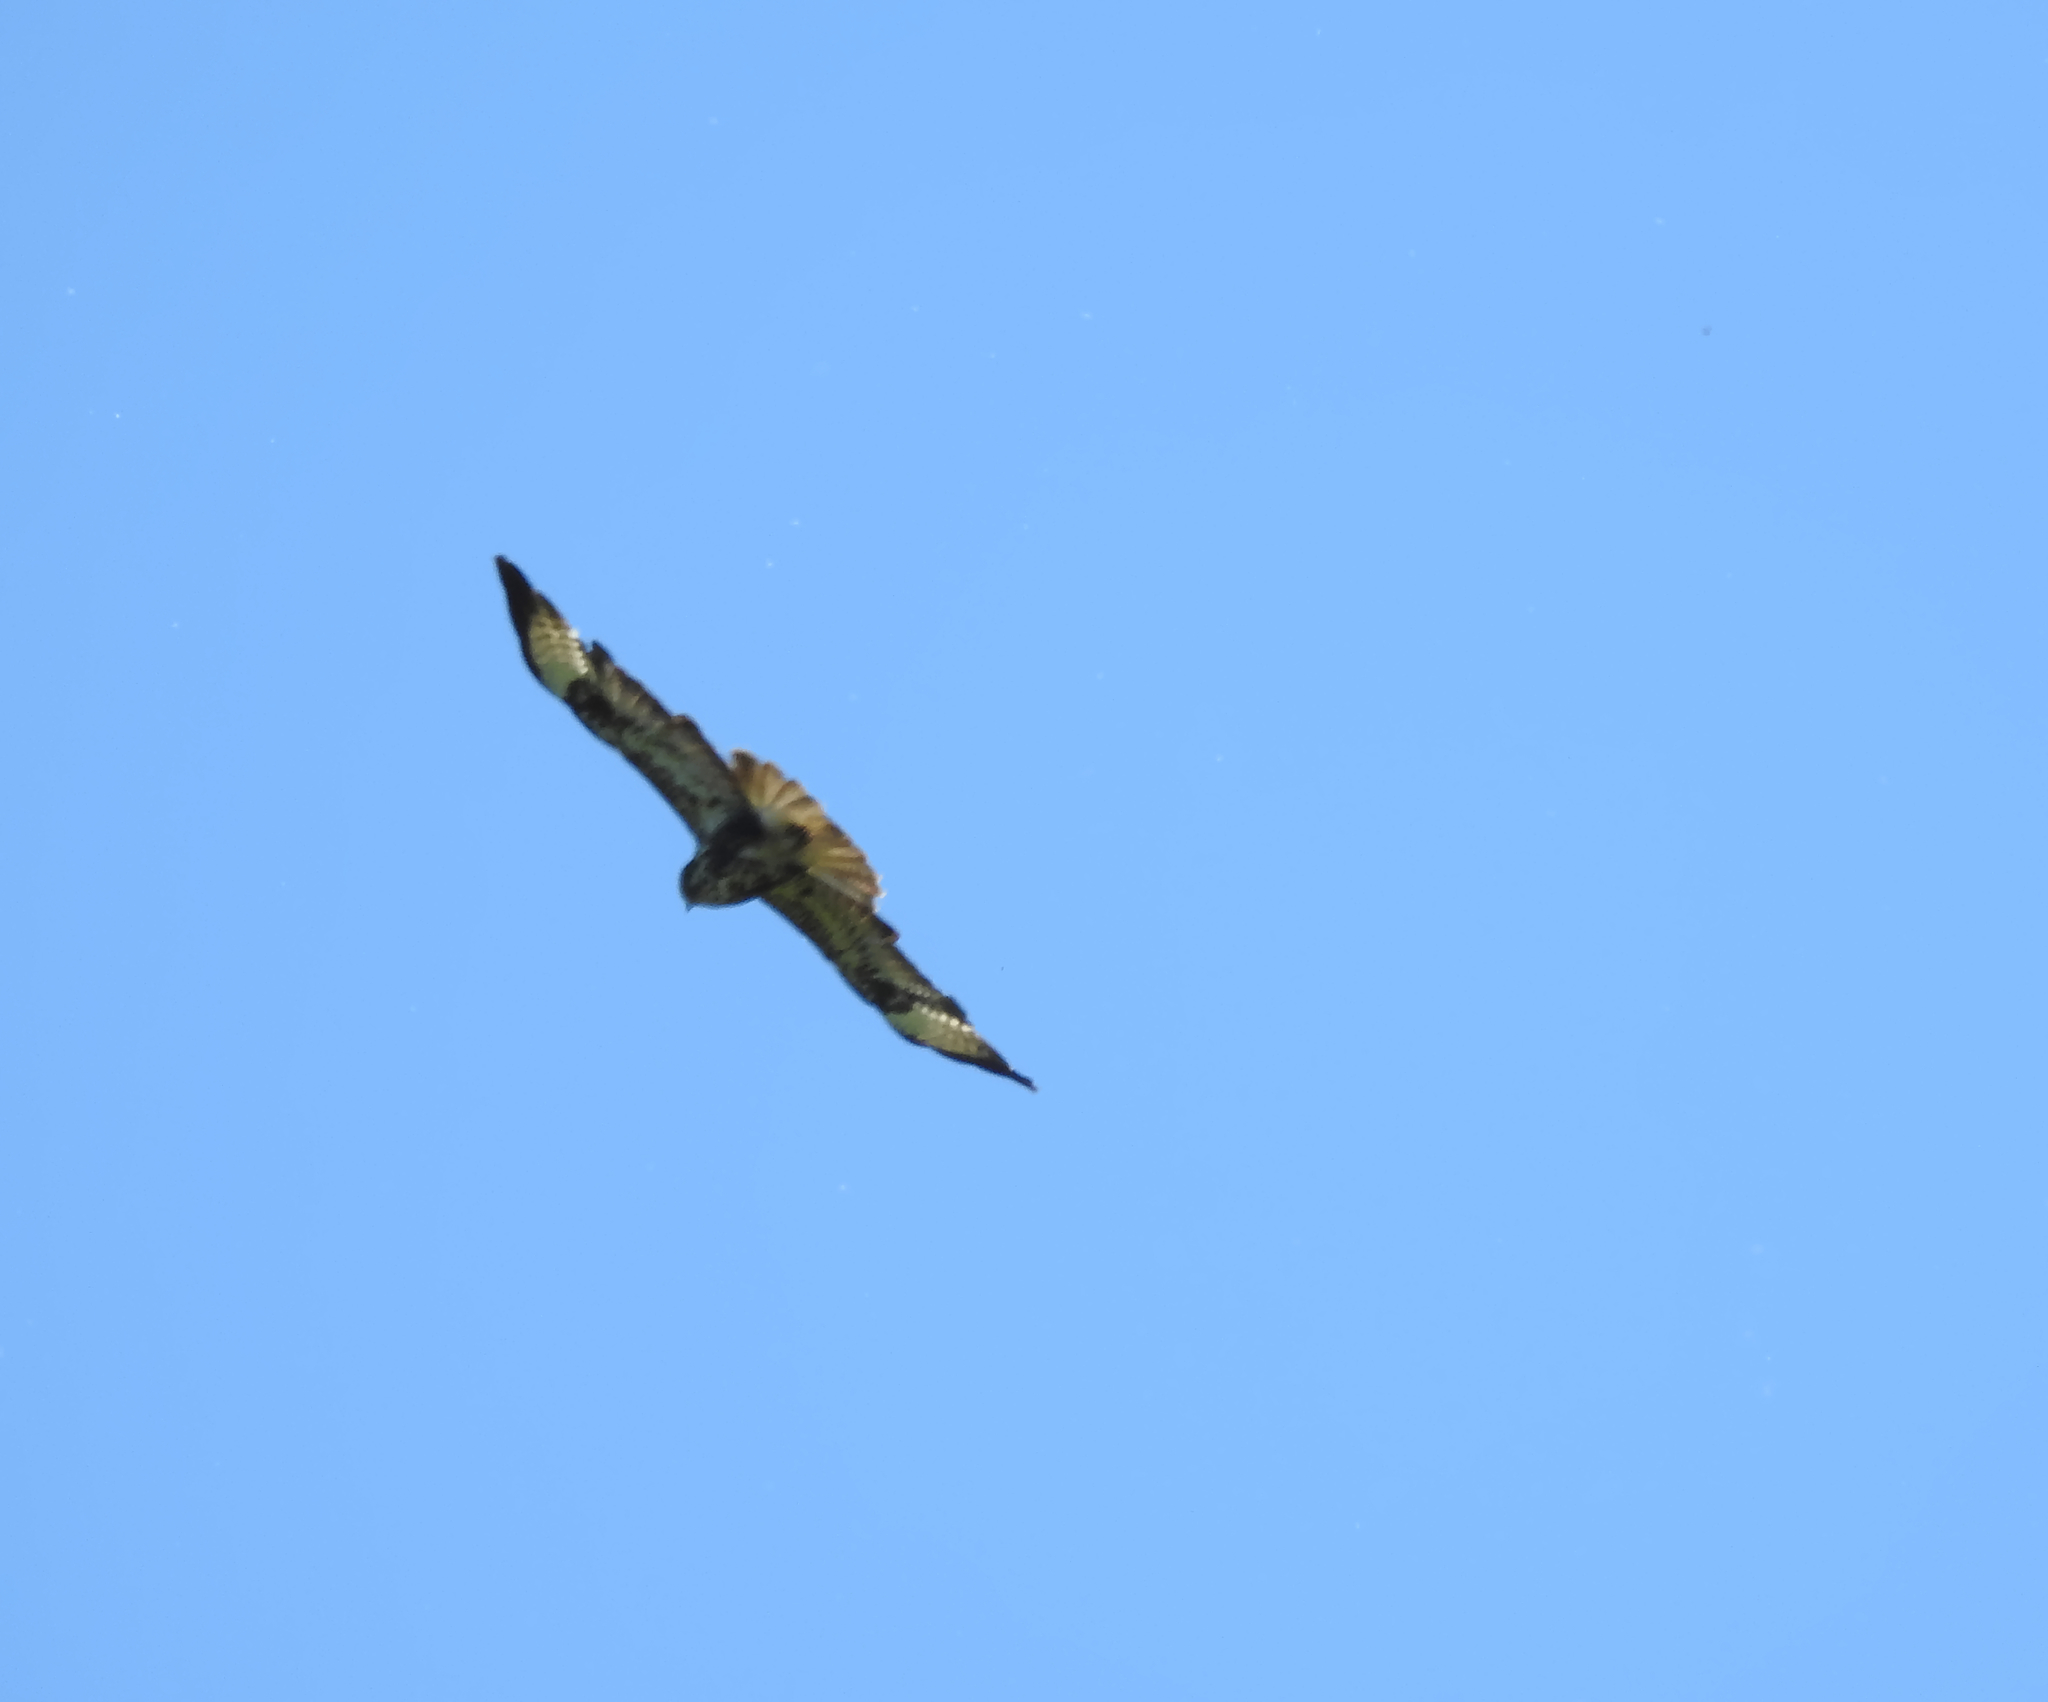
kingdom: Animalia
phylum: Chordata
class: Aves
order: Accipitriformes
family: Accipitridae
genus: Buteo
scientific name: Buteo buteo
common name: Common buzzard
